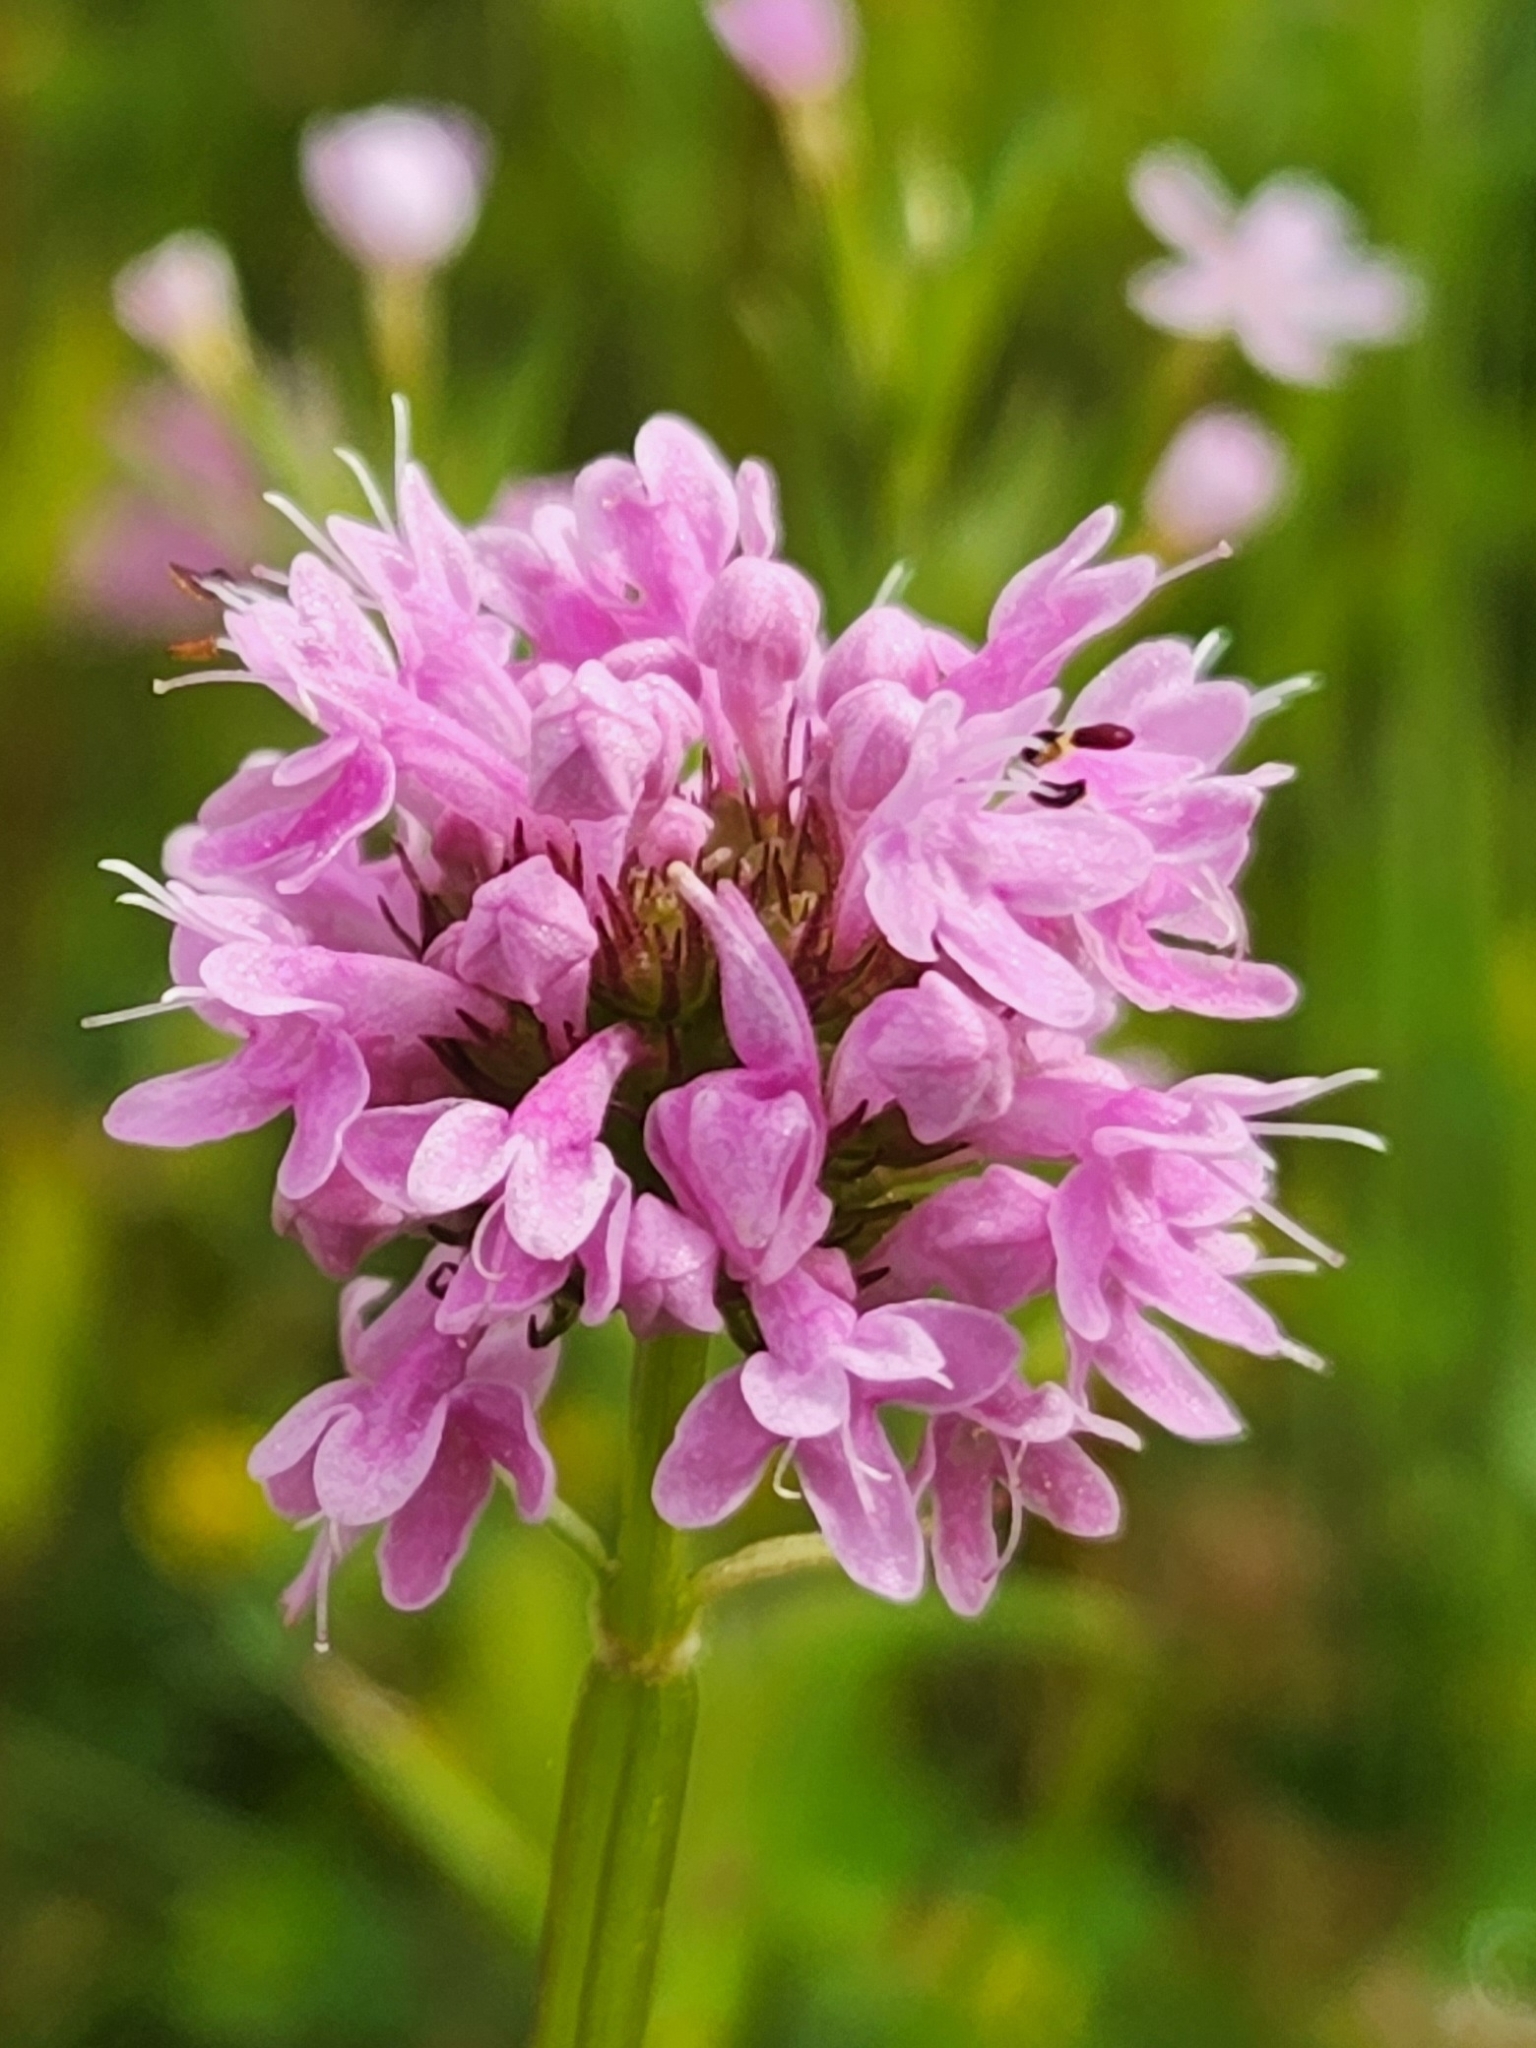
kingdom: Plantae
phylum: Tracheophyta
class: Magnoliopsida
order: Dipsacales
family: Caprifoliaceae
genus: Plectritis
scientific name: Plectritis congesta
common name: Pink plectritis
